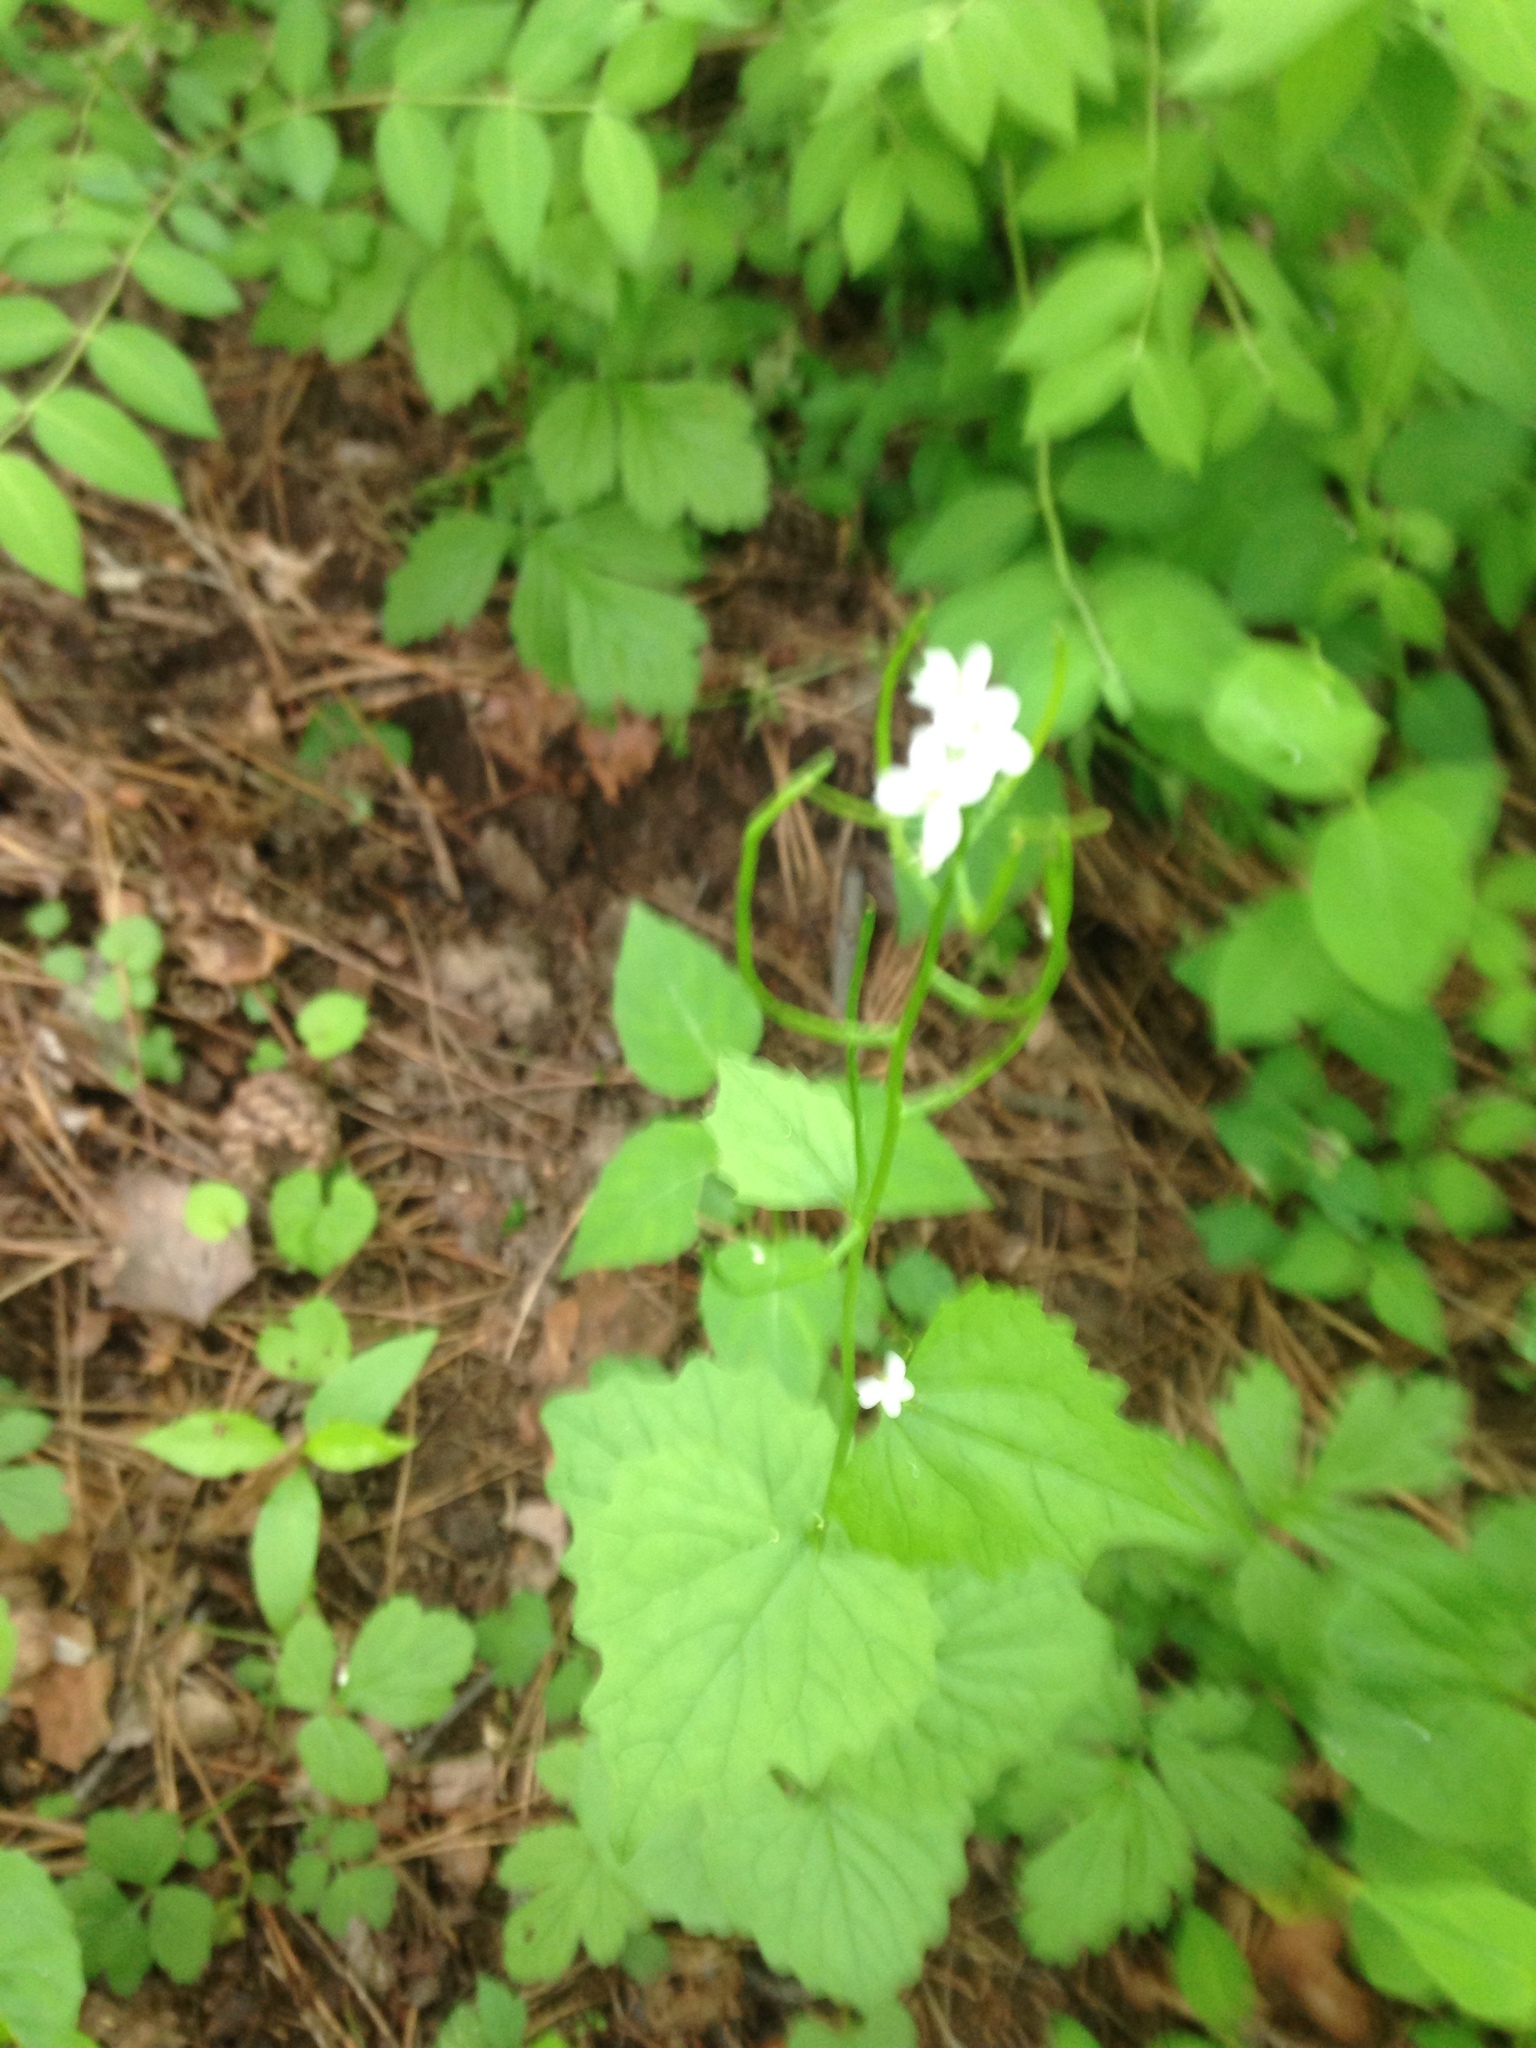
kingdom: Plantae
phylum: Tracheophyta
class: Magnoliopsida
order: Brassicales
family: Brassicaceae
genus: Alliaria
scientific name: Alliaria petiolata
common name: Garlic mustard
